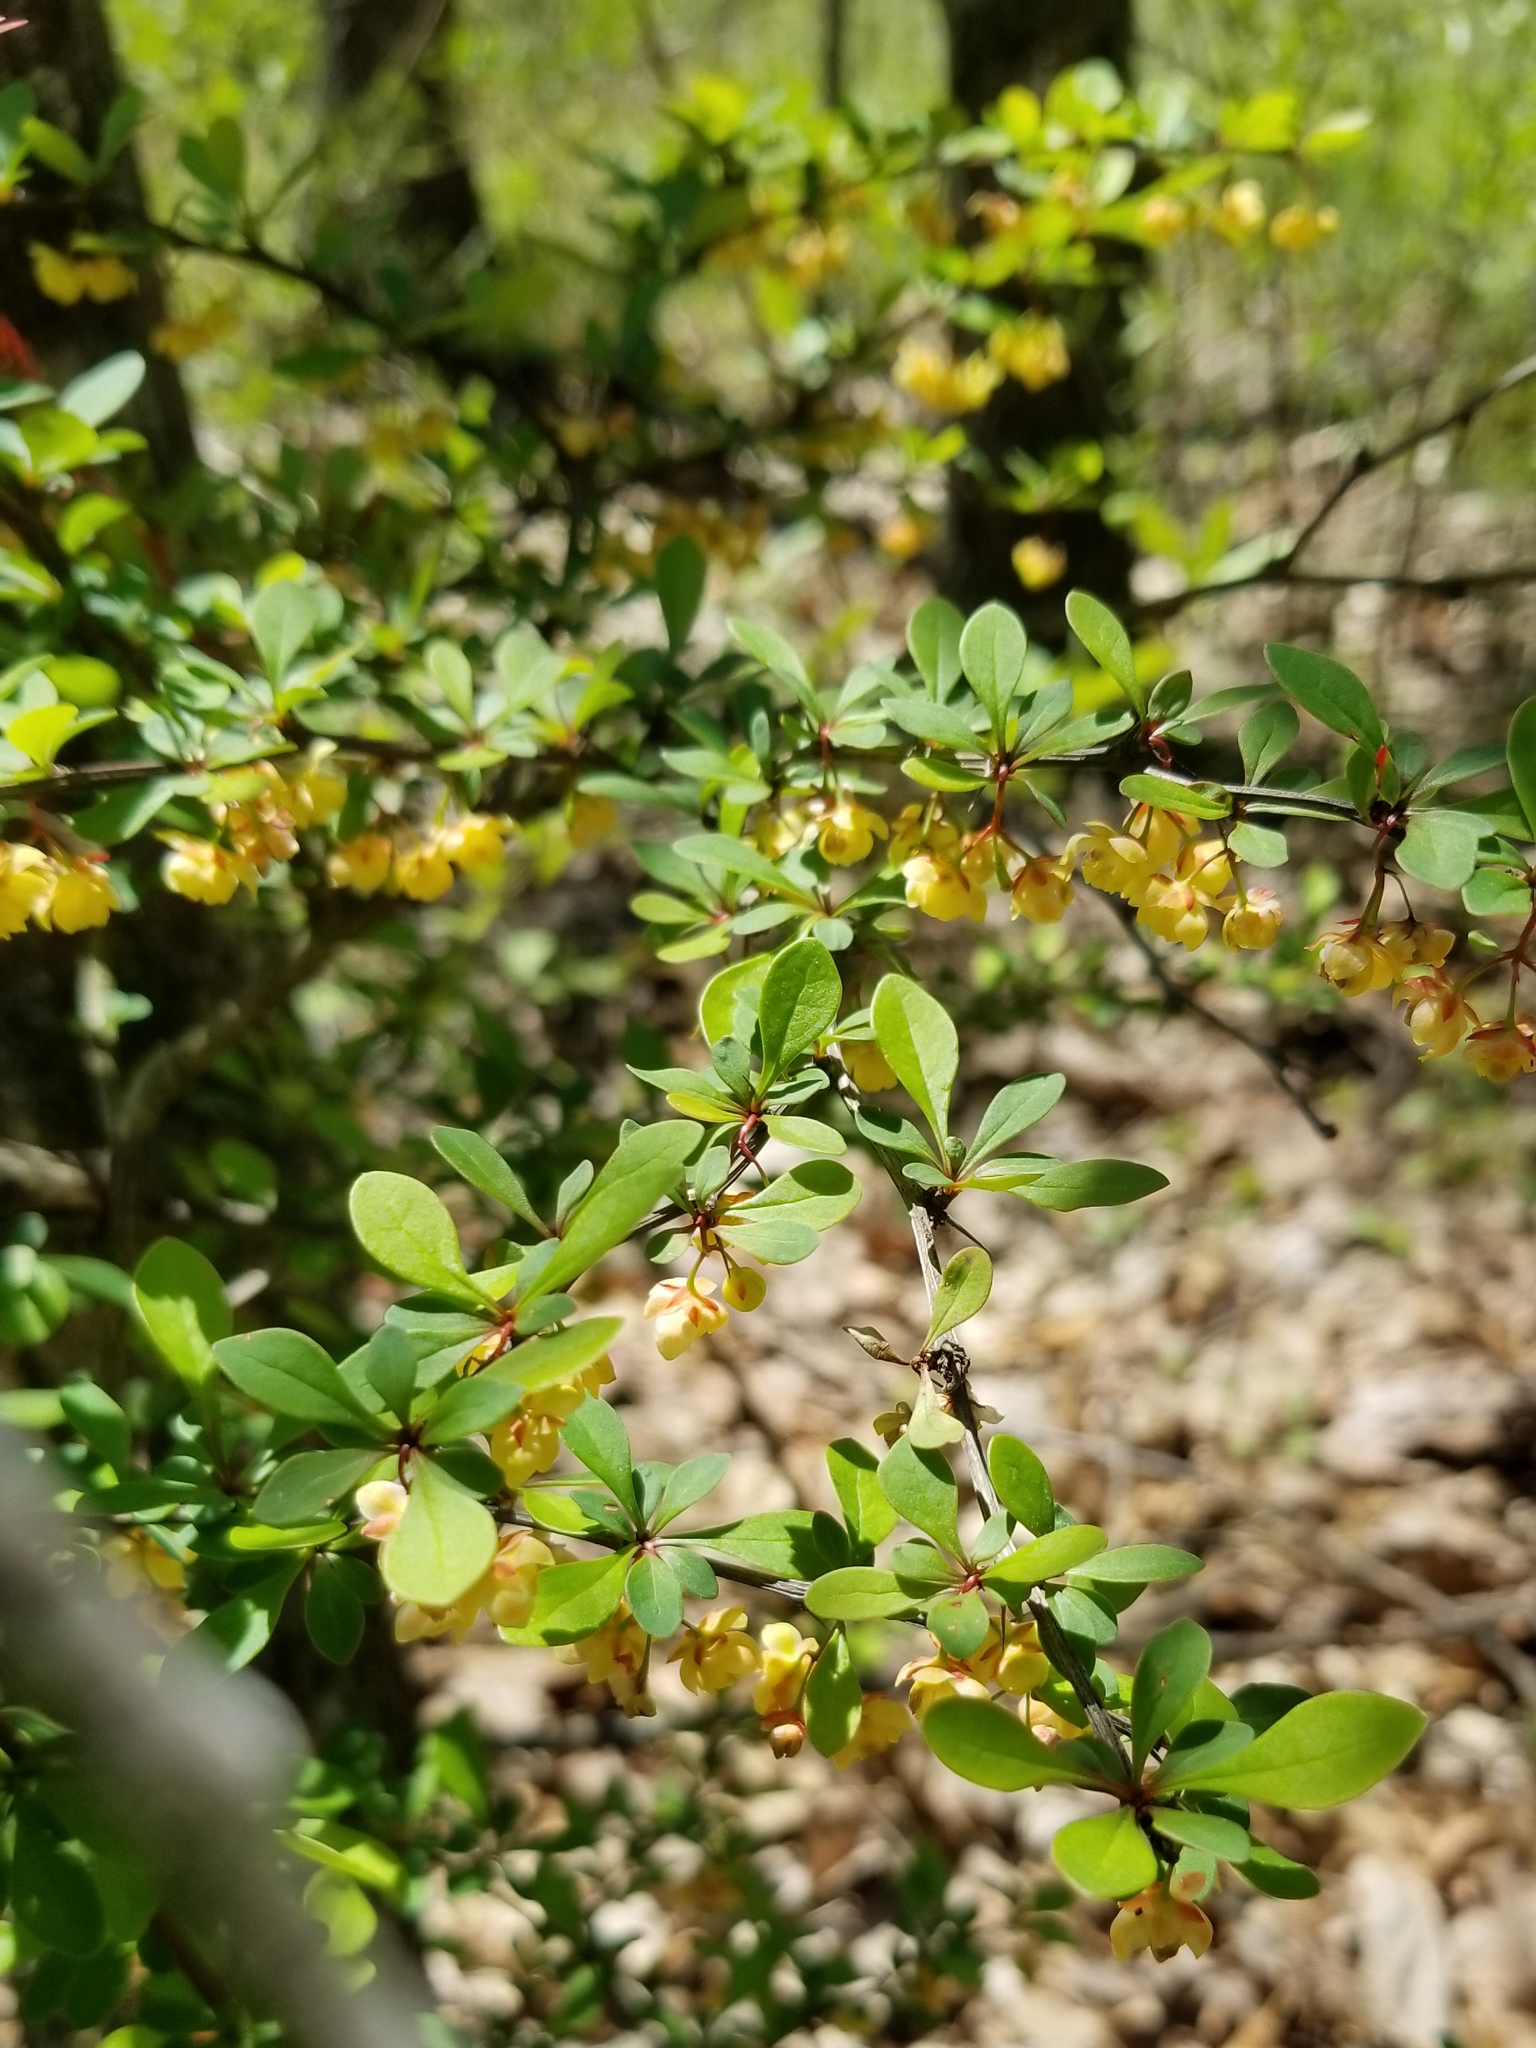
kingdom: Plantae
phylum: Tracheophyta
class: Magnoliopsida
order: Ranunculales
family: Berberidaceae
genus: Berberis
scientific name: Berberis thunbergii
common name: Japanese barberry
